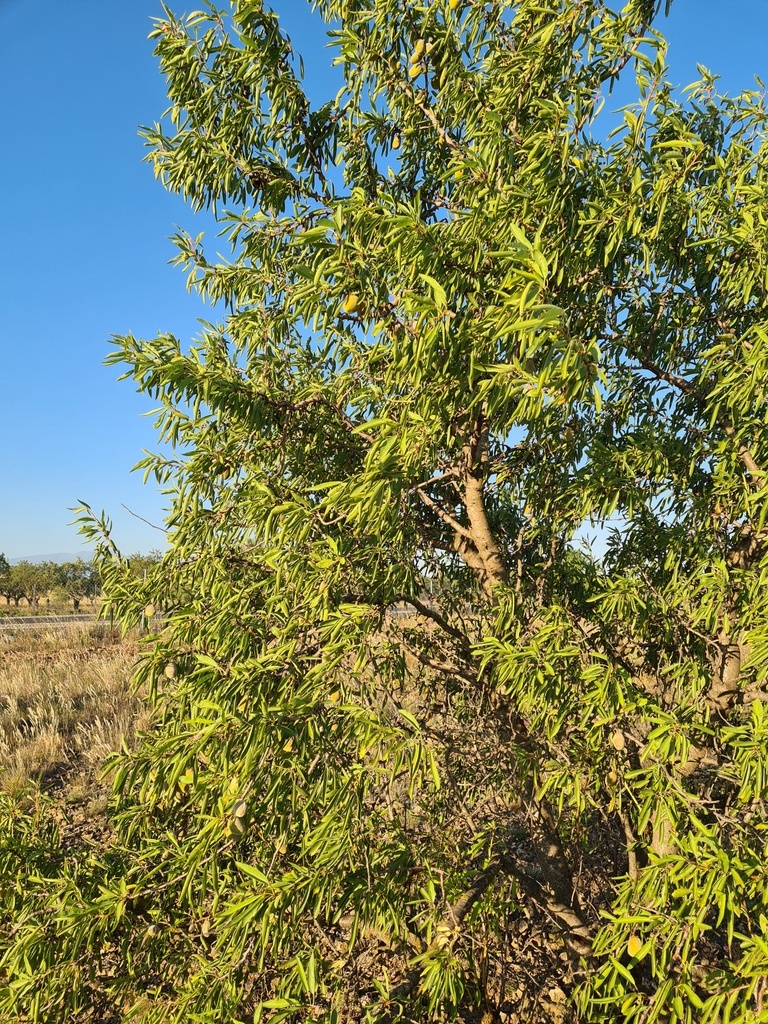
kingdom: Plantae
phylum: Tracheophyta
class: Magnoliopsida
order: Rosales
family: Rosaceae
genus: Prunus
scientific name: Prunus amygdalus
